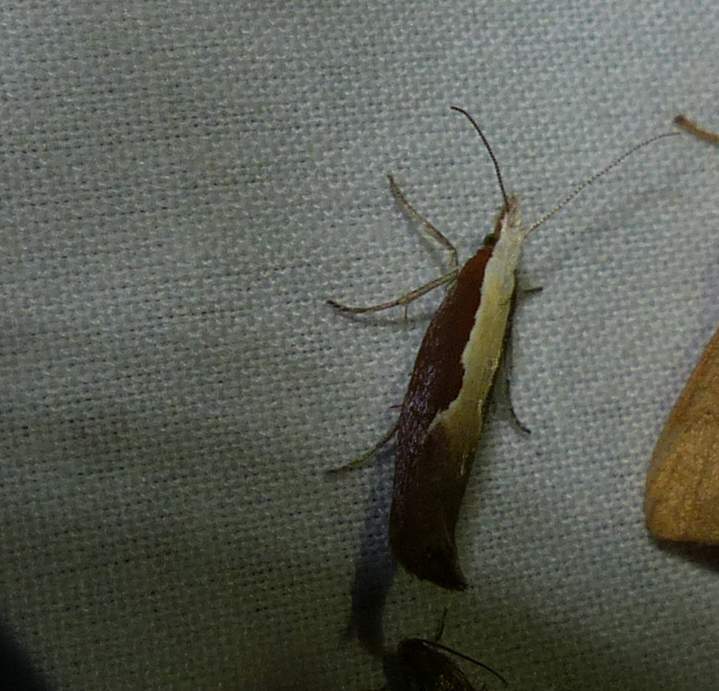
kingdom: Animalia
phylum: Arthropoda
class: Insecta
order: Lepidoptera
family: Ypsolophidae
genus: Ypsolopha
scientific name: Ypsolopha dentella
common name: Honeysuckle moth
